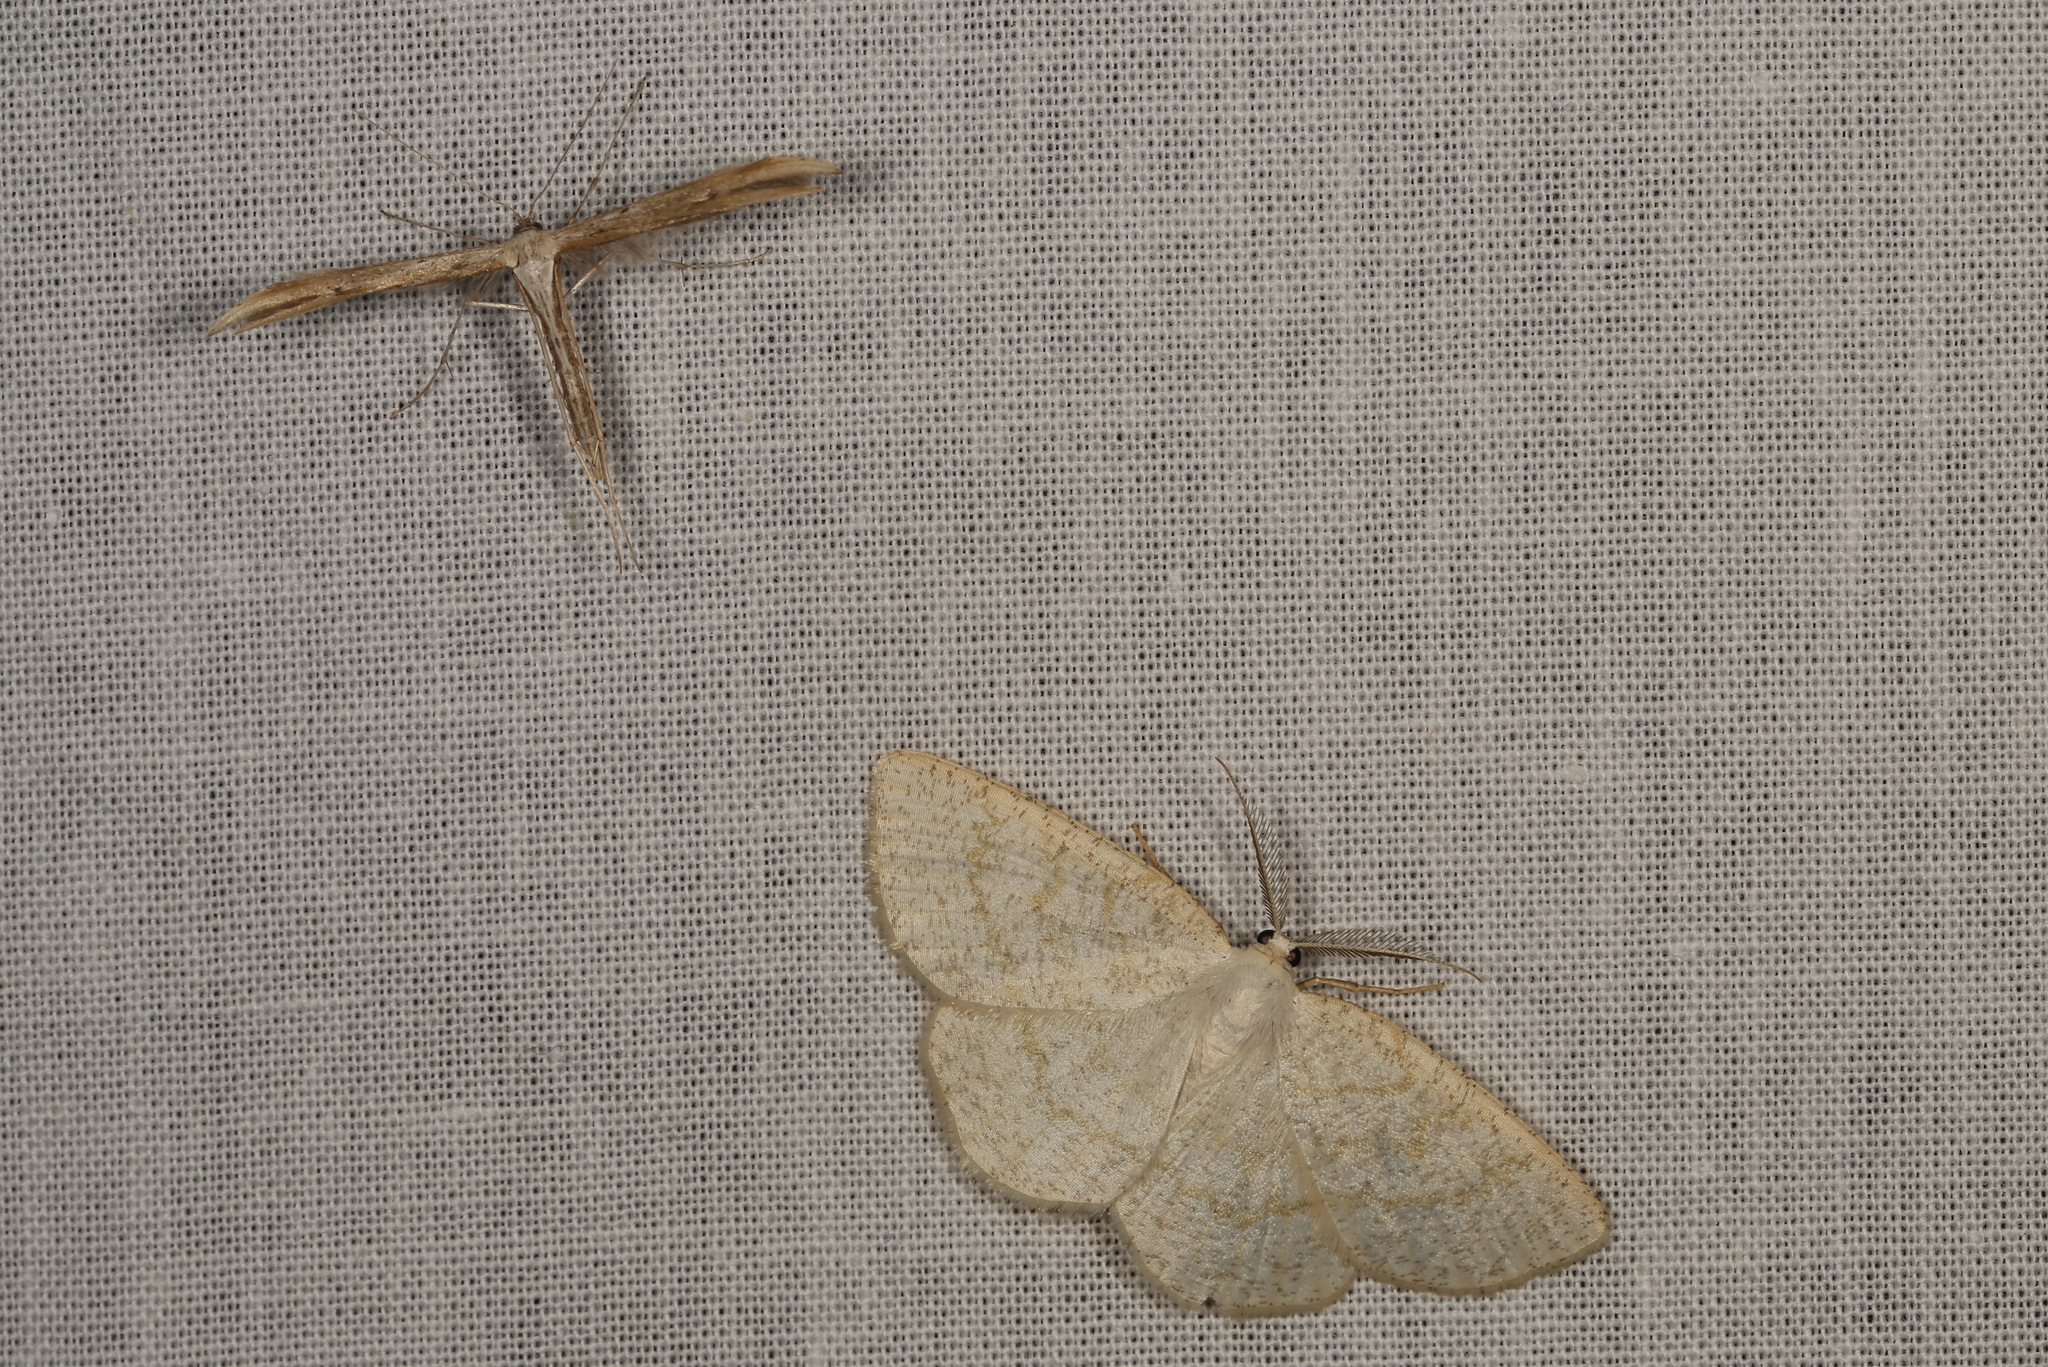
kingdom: Animalia
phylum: Arthropoda
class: Insecta
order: Lepidoptera
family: Pterophoridae
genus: Emmelina
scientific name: Emmelina monodactyla
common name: Common plume
